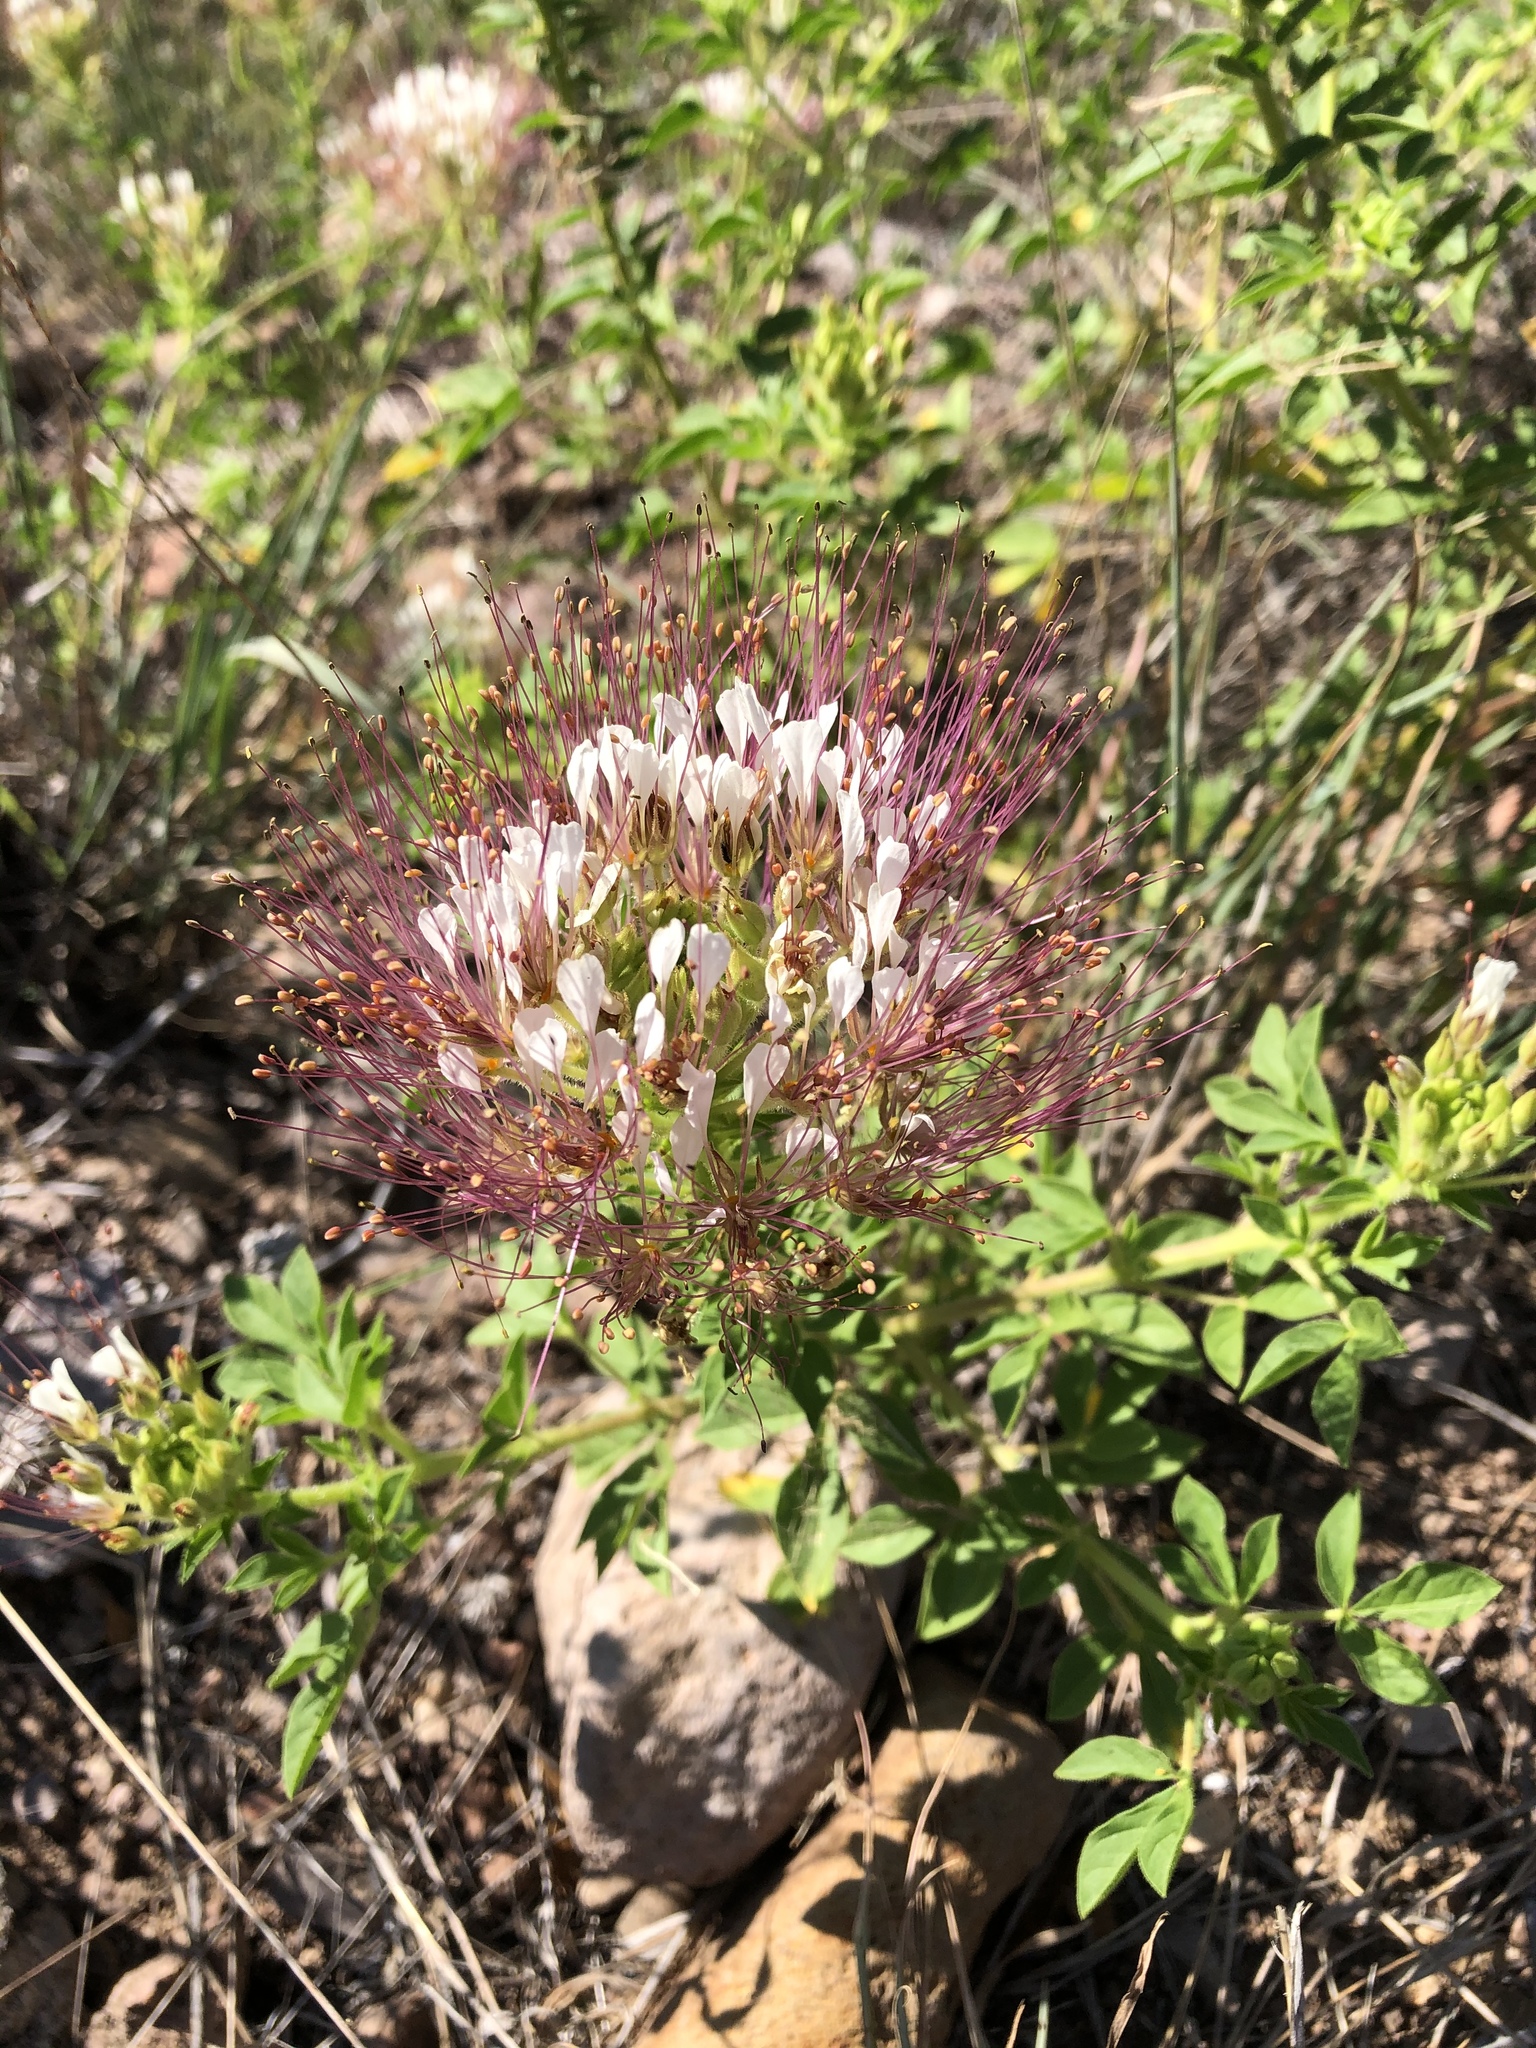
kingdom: Plantae
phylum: Tracheophyta
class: Magnoliopsida
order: Brassicales
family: Cleomaceae
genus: Polanisia
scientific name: Polanisia dodecandra
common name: Clammyweed
